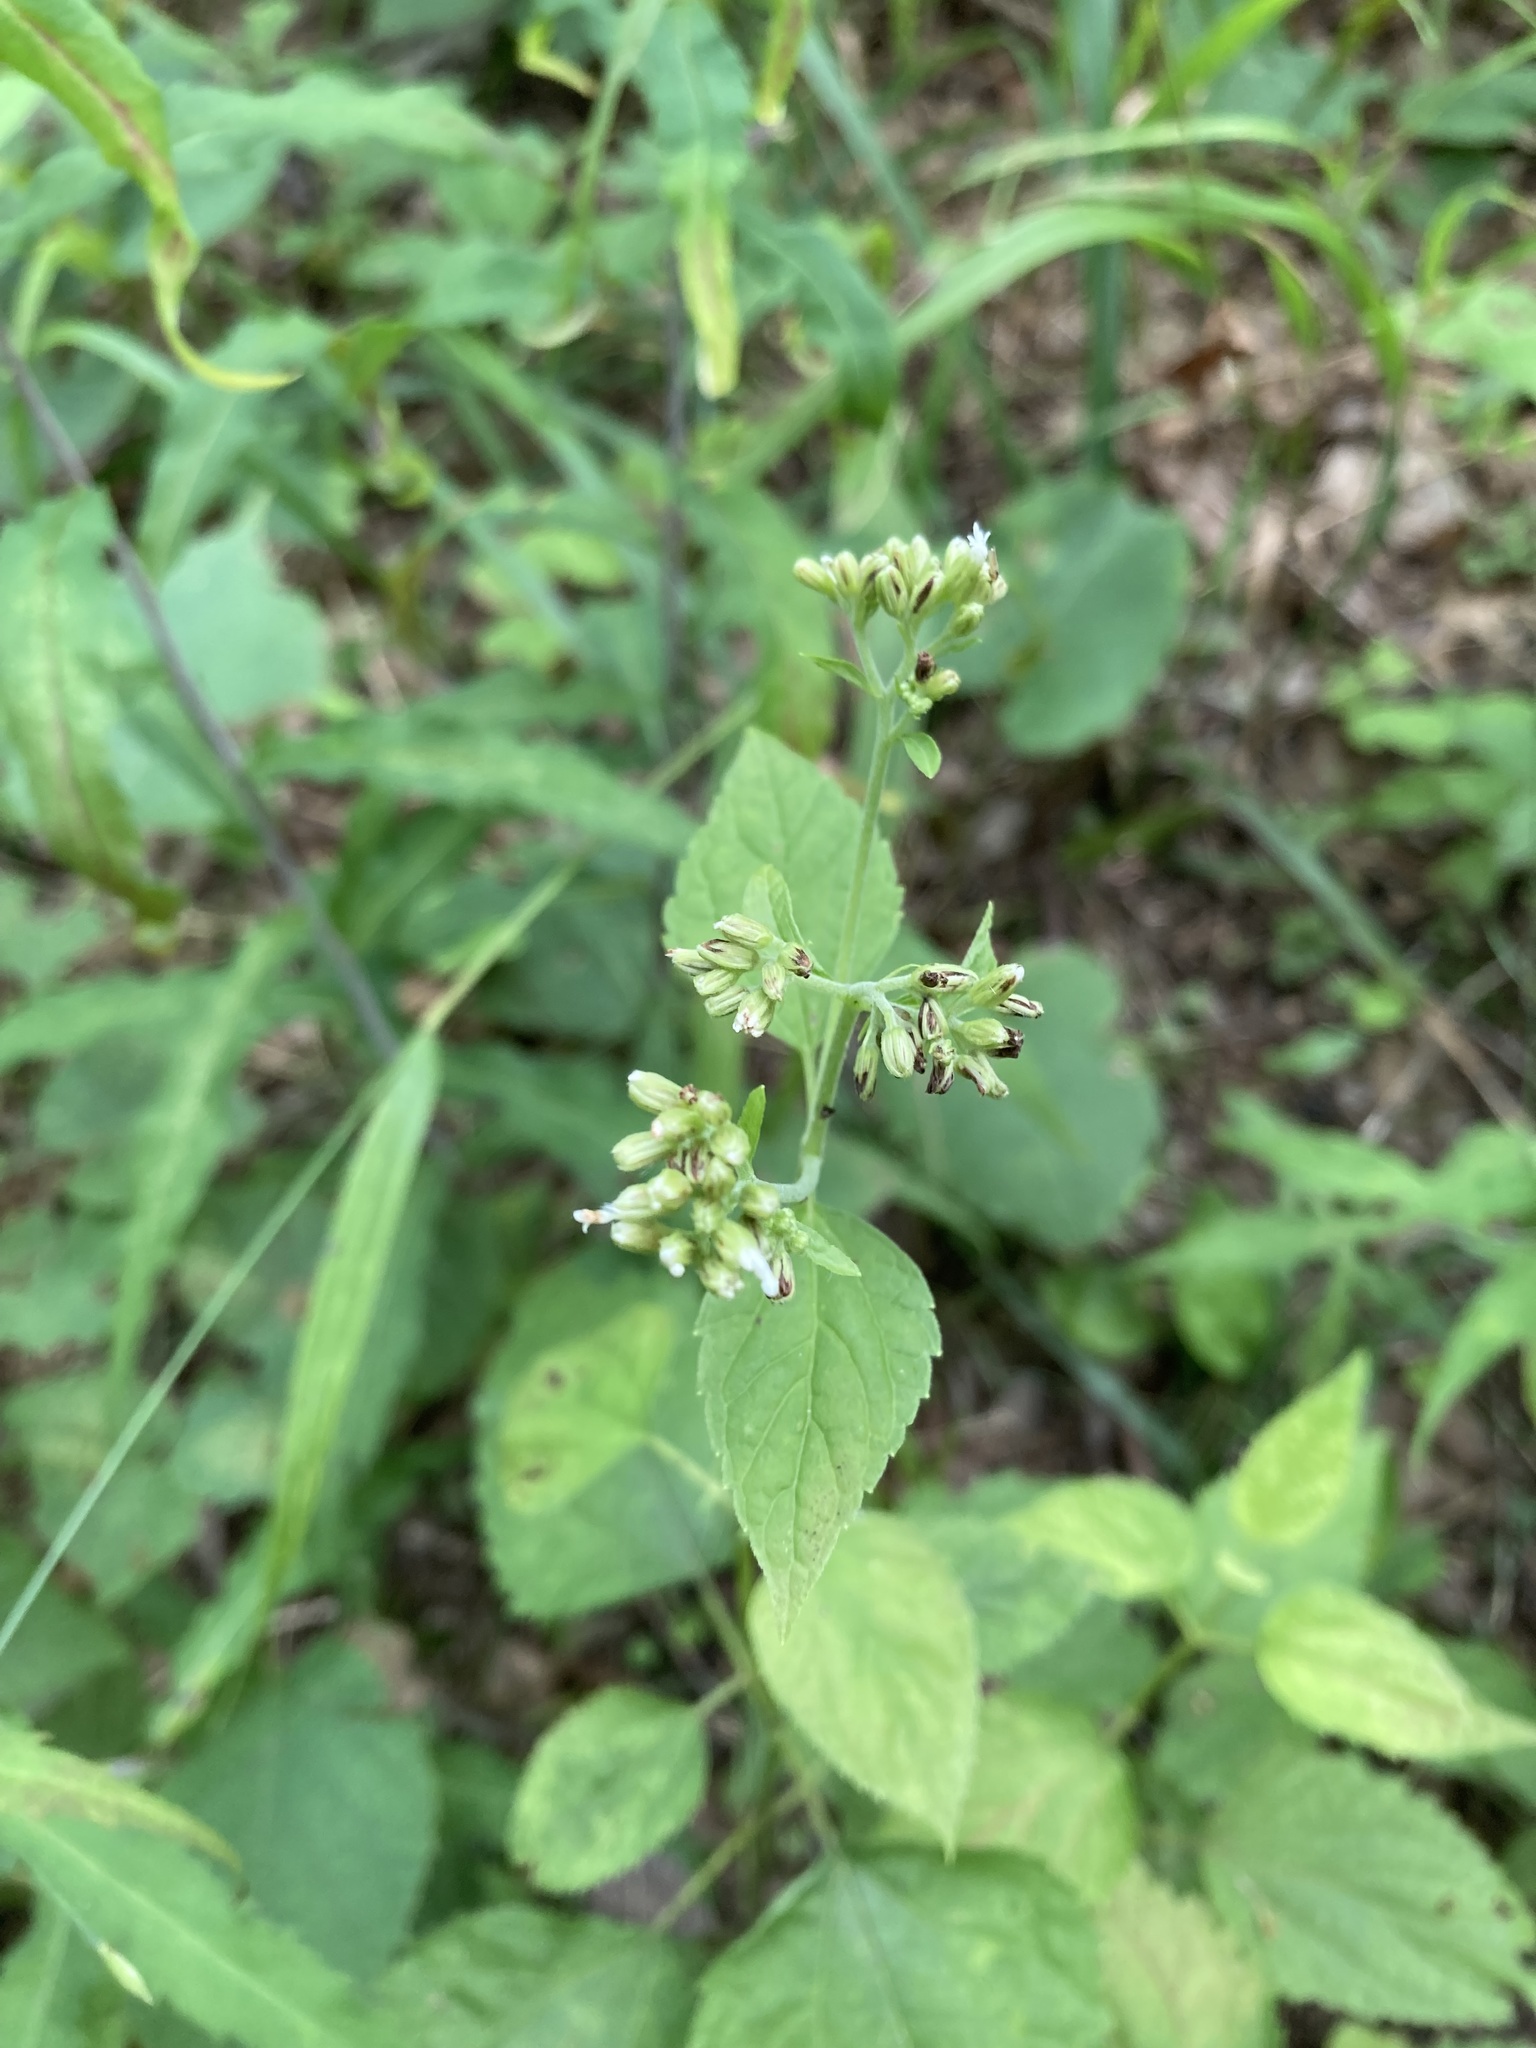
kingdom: Plantae
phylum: Tracheophyta
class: Magnoliopsida
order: Asterales
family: Asteraceae
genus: Ageratina
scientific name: Ageratina altissima
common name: White snakeroot
